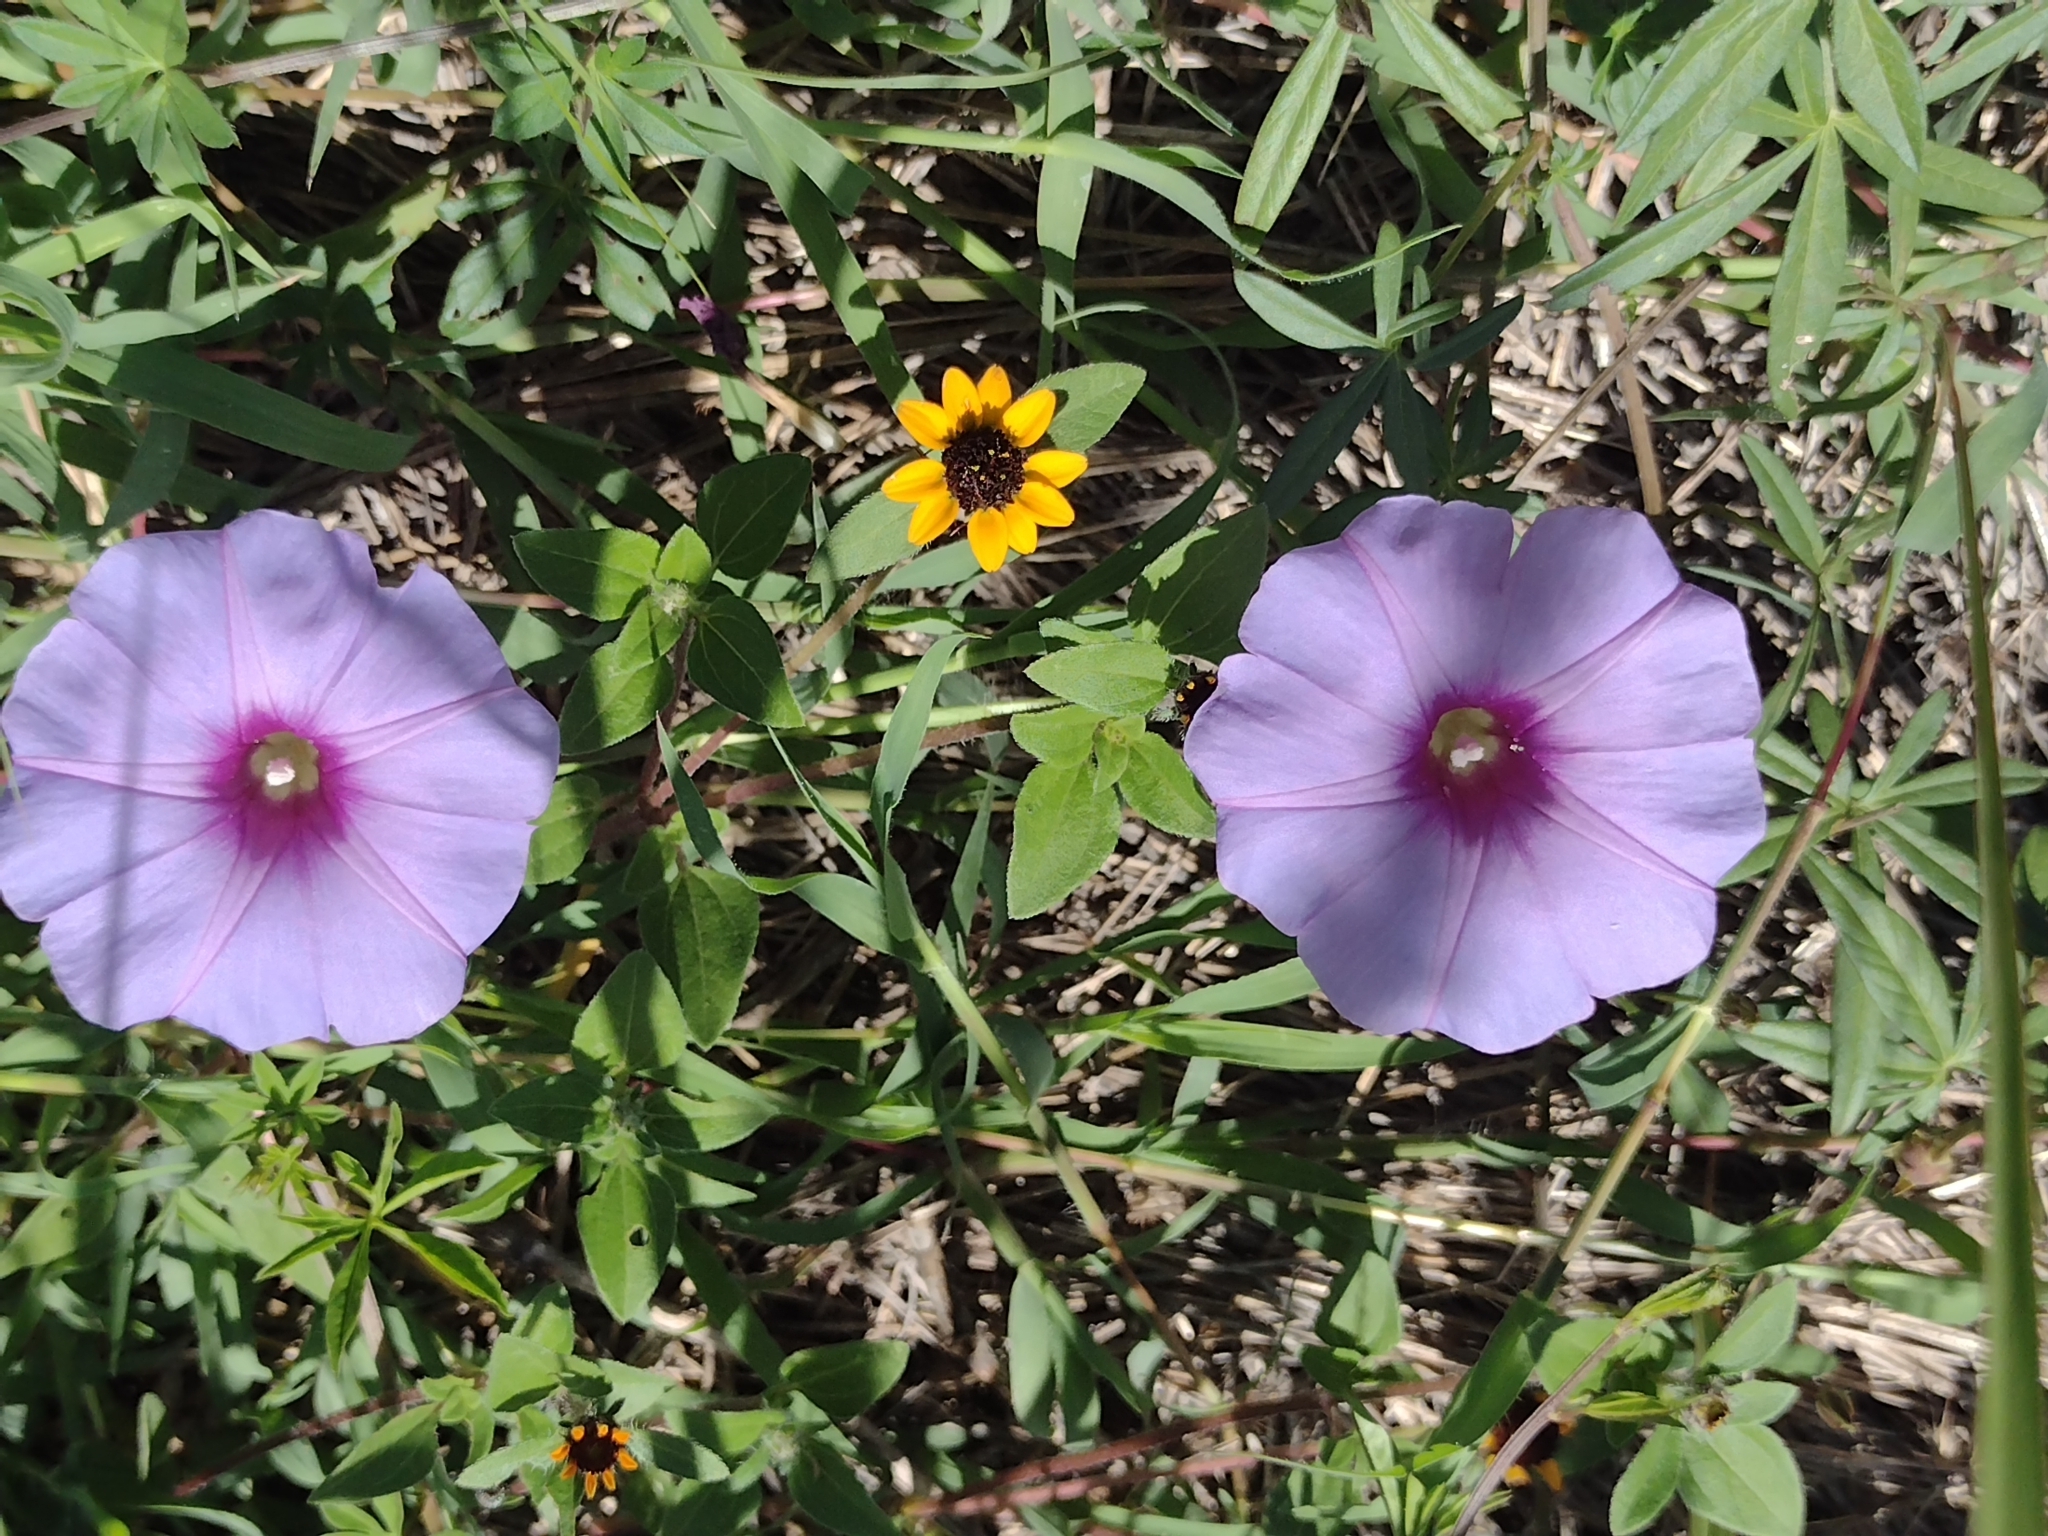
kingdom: Plantae
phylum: Tracheophyta
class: Magnoliopsida
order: Solanales
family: Convolvulaceae
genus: Ipomoea
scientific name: Ipomoea ternifolia
